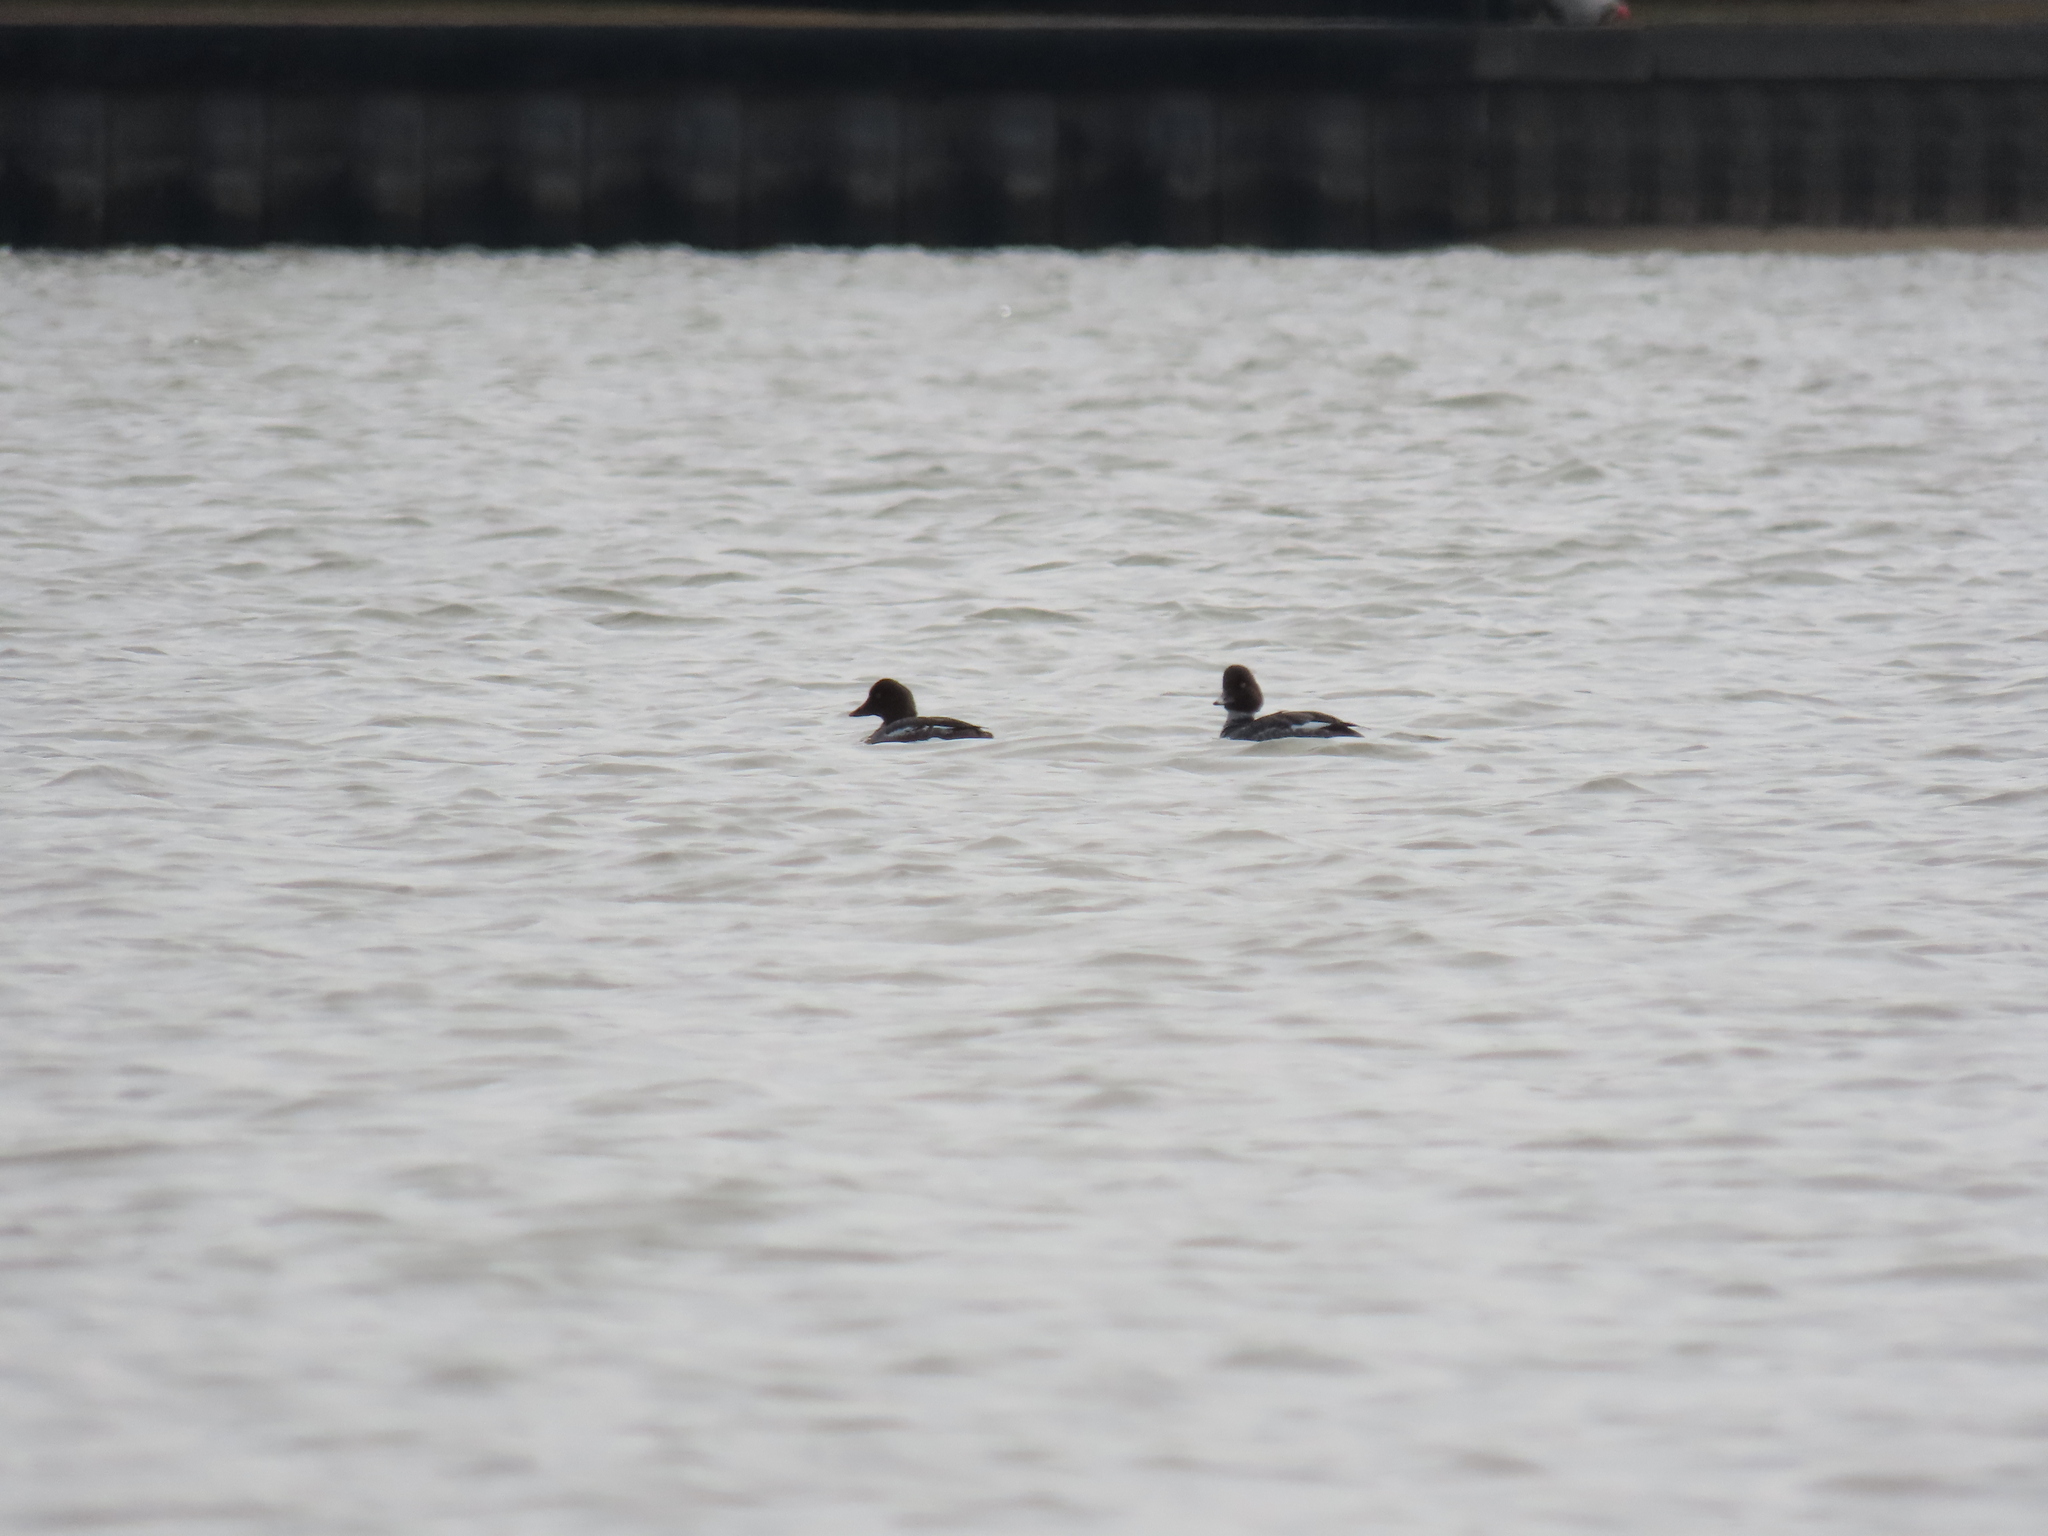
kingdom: Animalia
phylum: Chordata
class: Aves
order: Anseriformes
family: Anatidae
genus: Bucephala
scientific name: Bucephala clangula
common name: Common goldeneye
